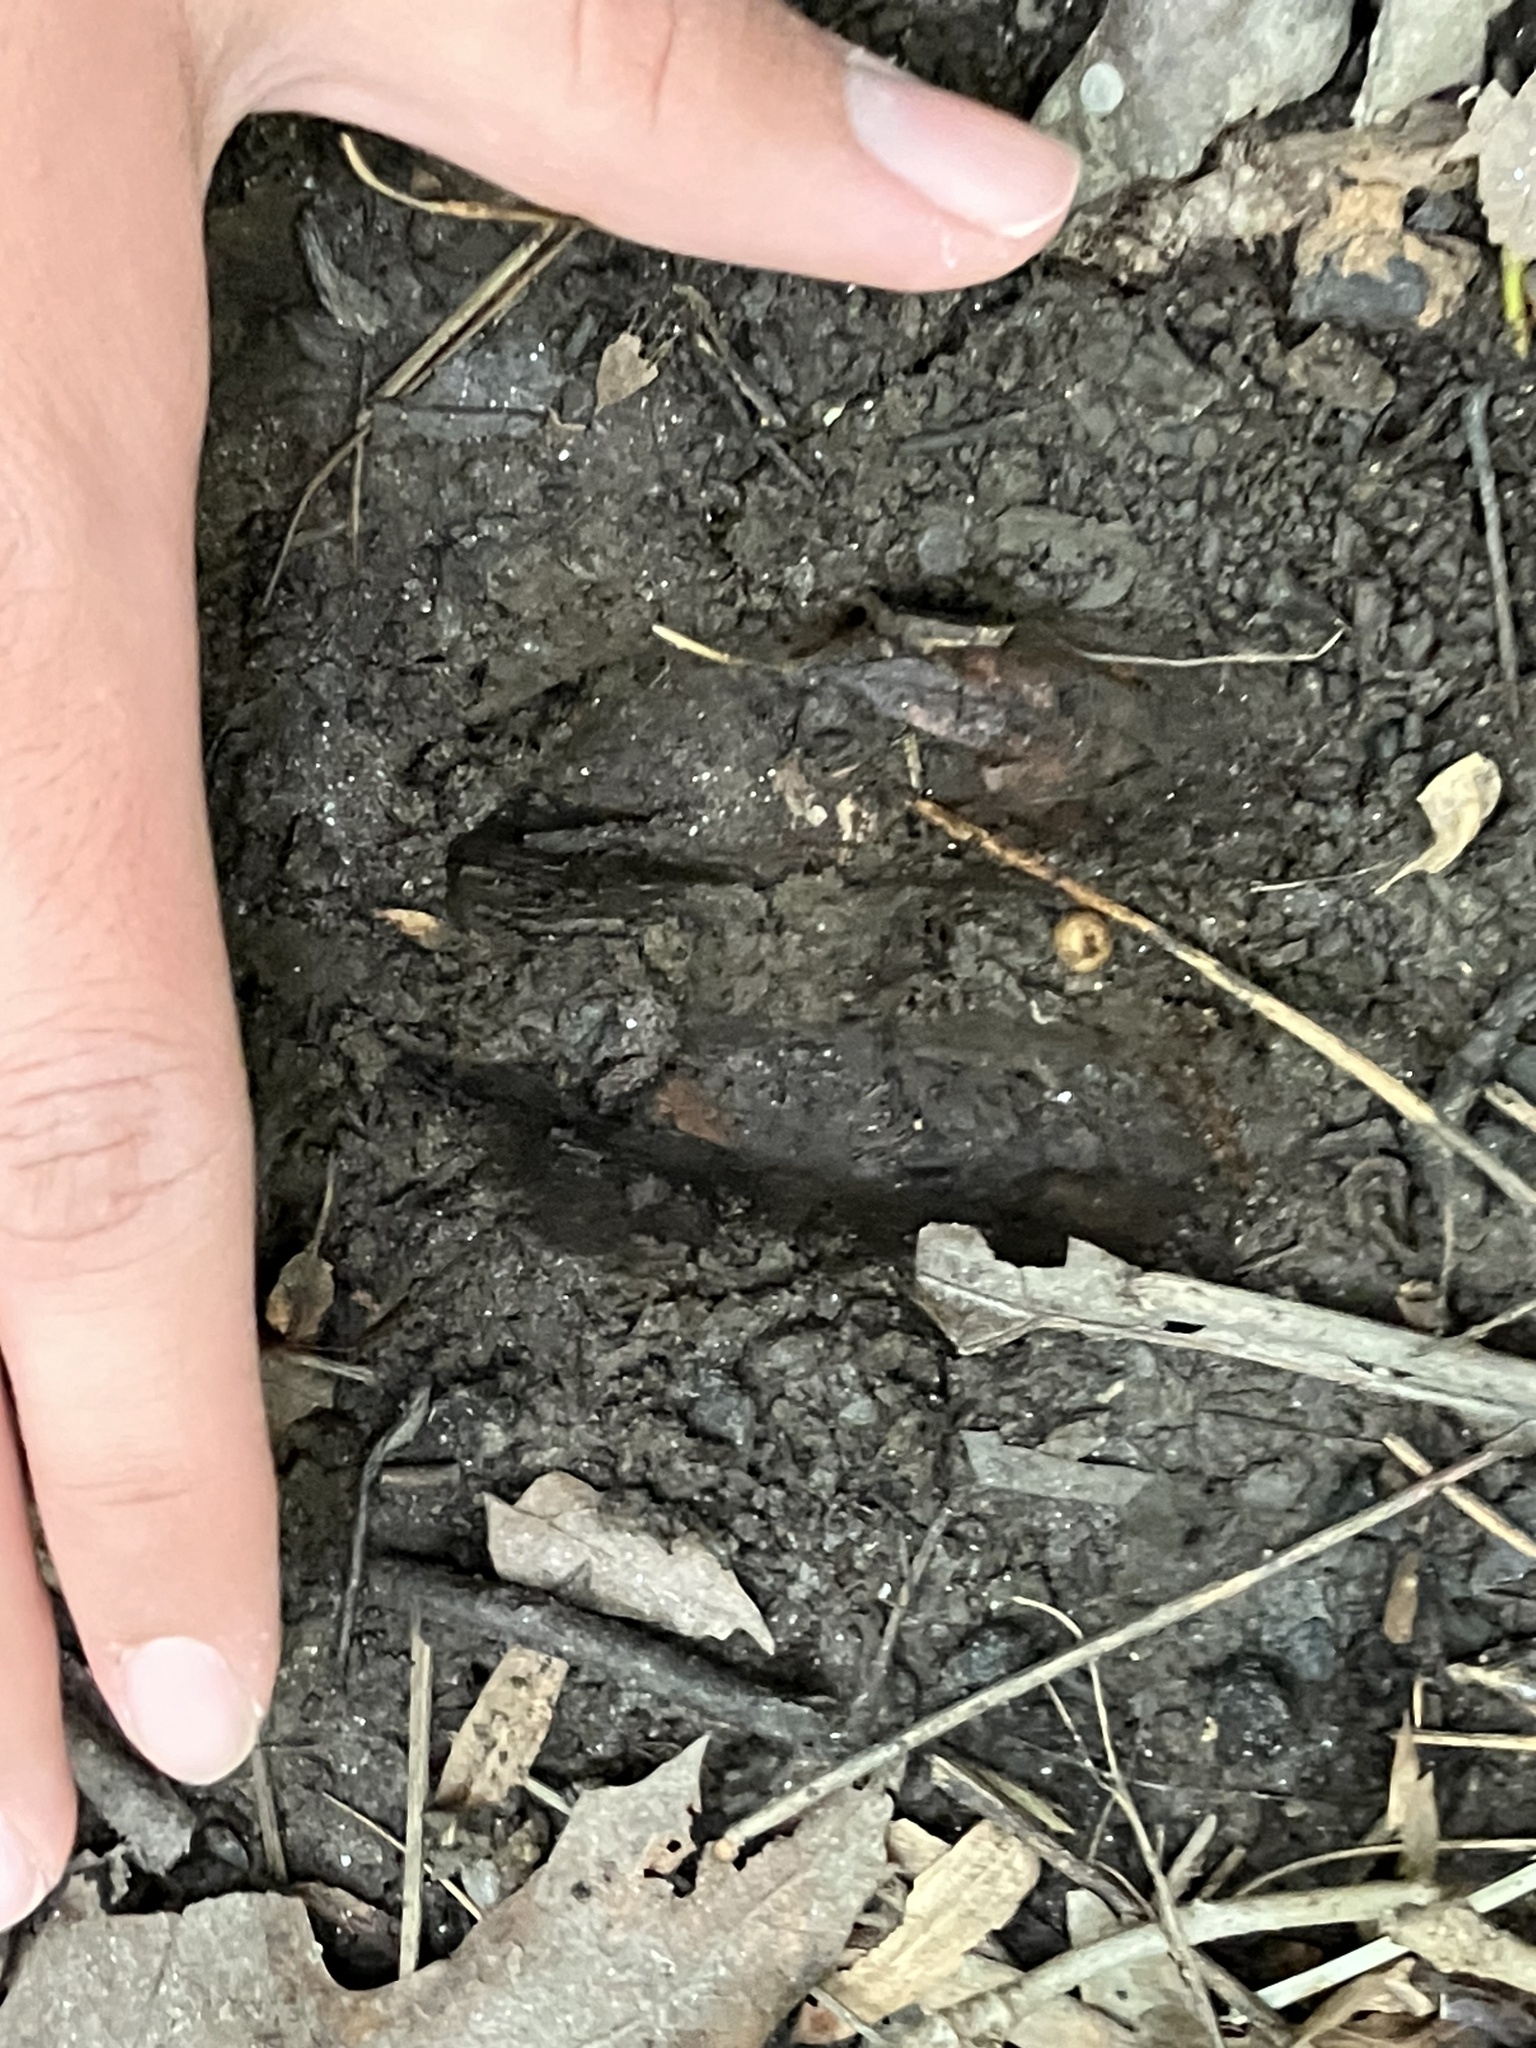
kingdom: Animalia
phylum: Chordata
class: Mammalia
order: Artiodactyla
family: Cervidae
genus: Odocoileus
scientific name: Odocoileus virginianus
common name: White-tailed deer
